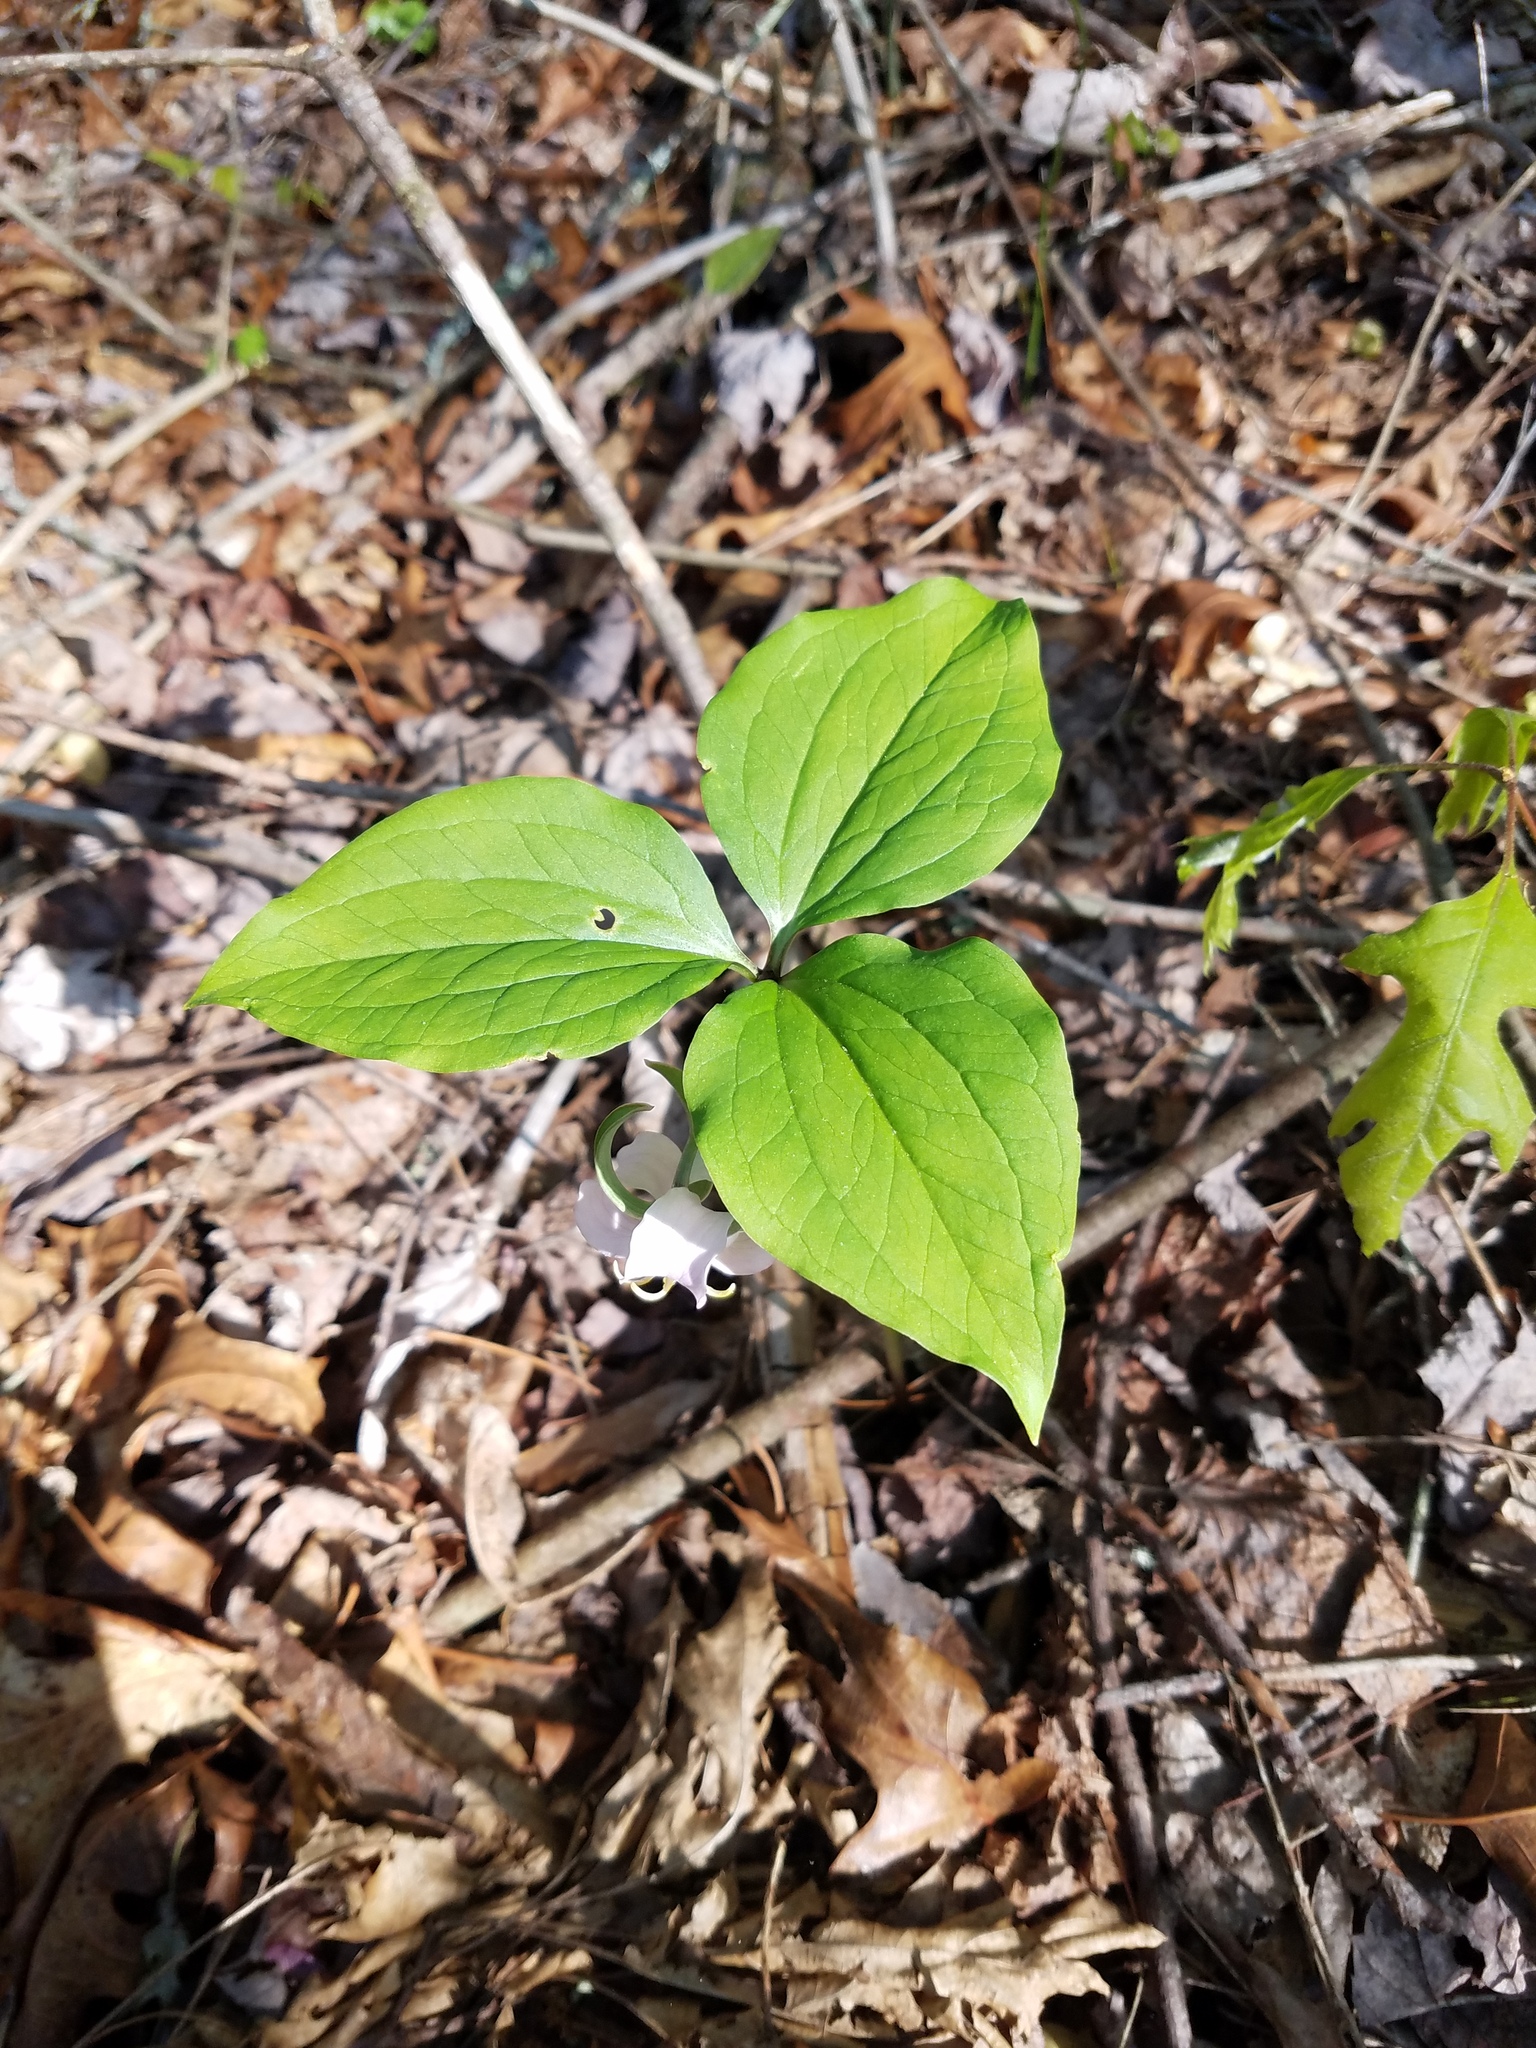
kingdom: Plantae
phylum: Tracheophyta
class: Liliopsida
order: Liliales
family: Melanthiaceae
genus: Trillium
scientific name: Trillium catesbaei
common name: Bashful trillium
